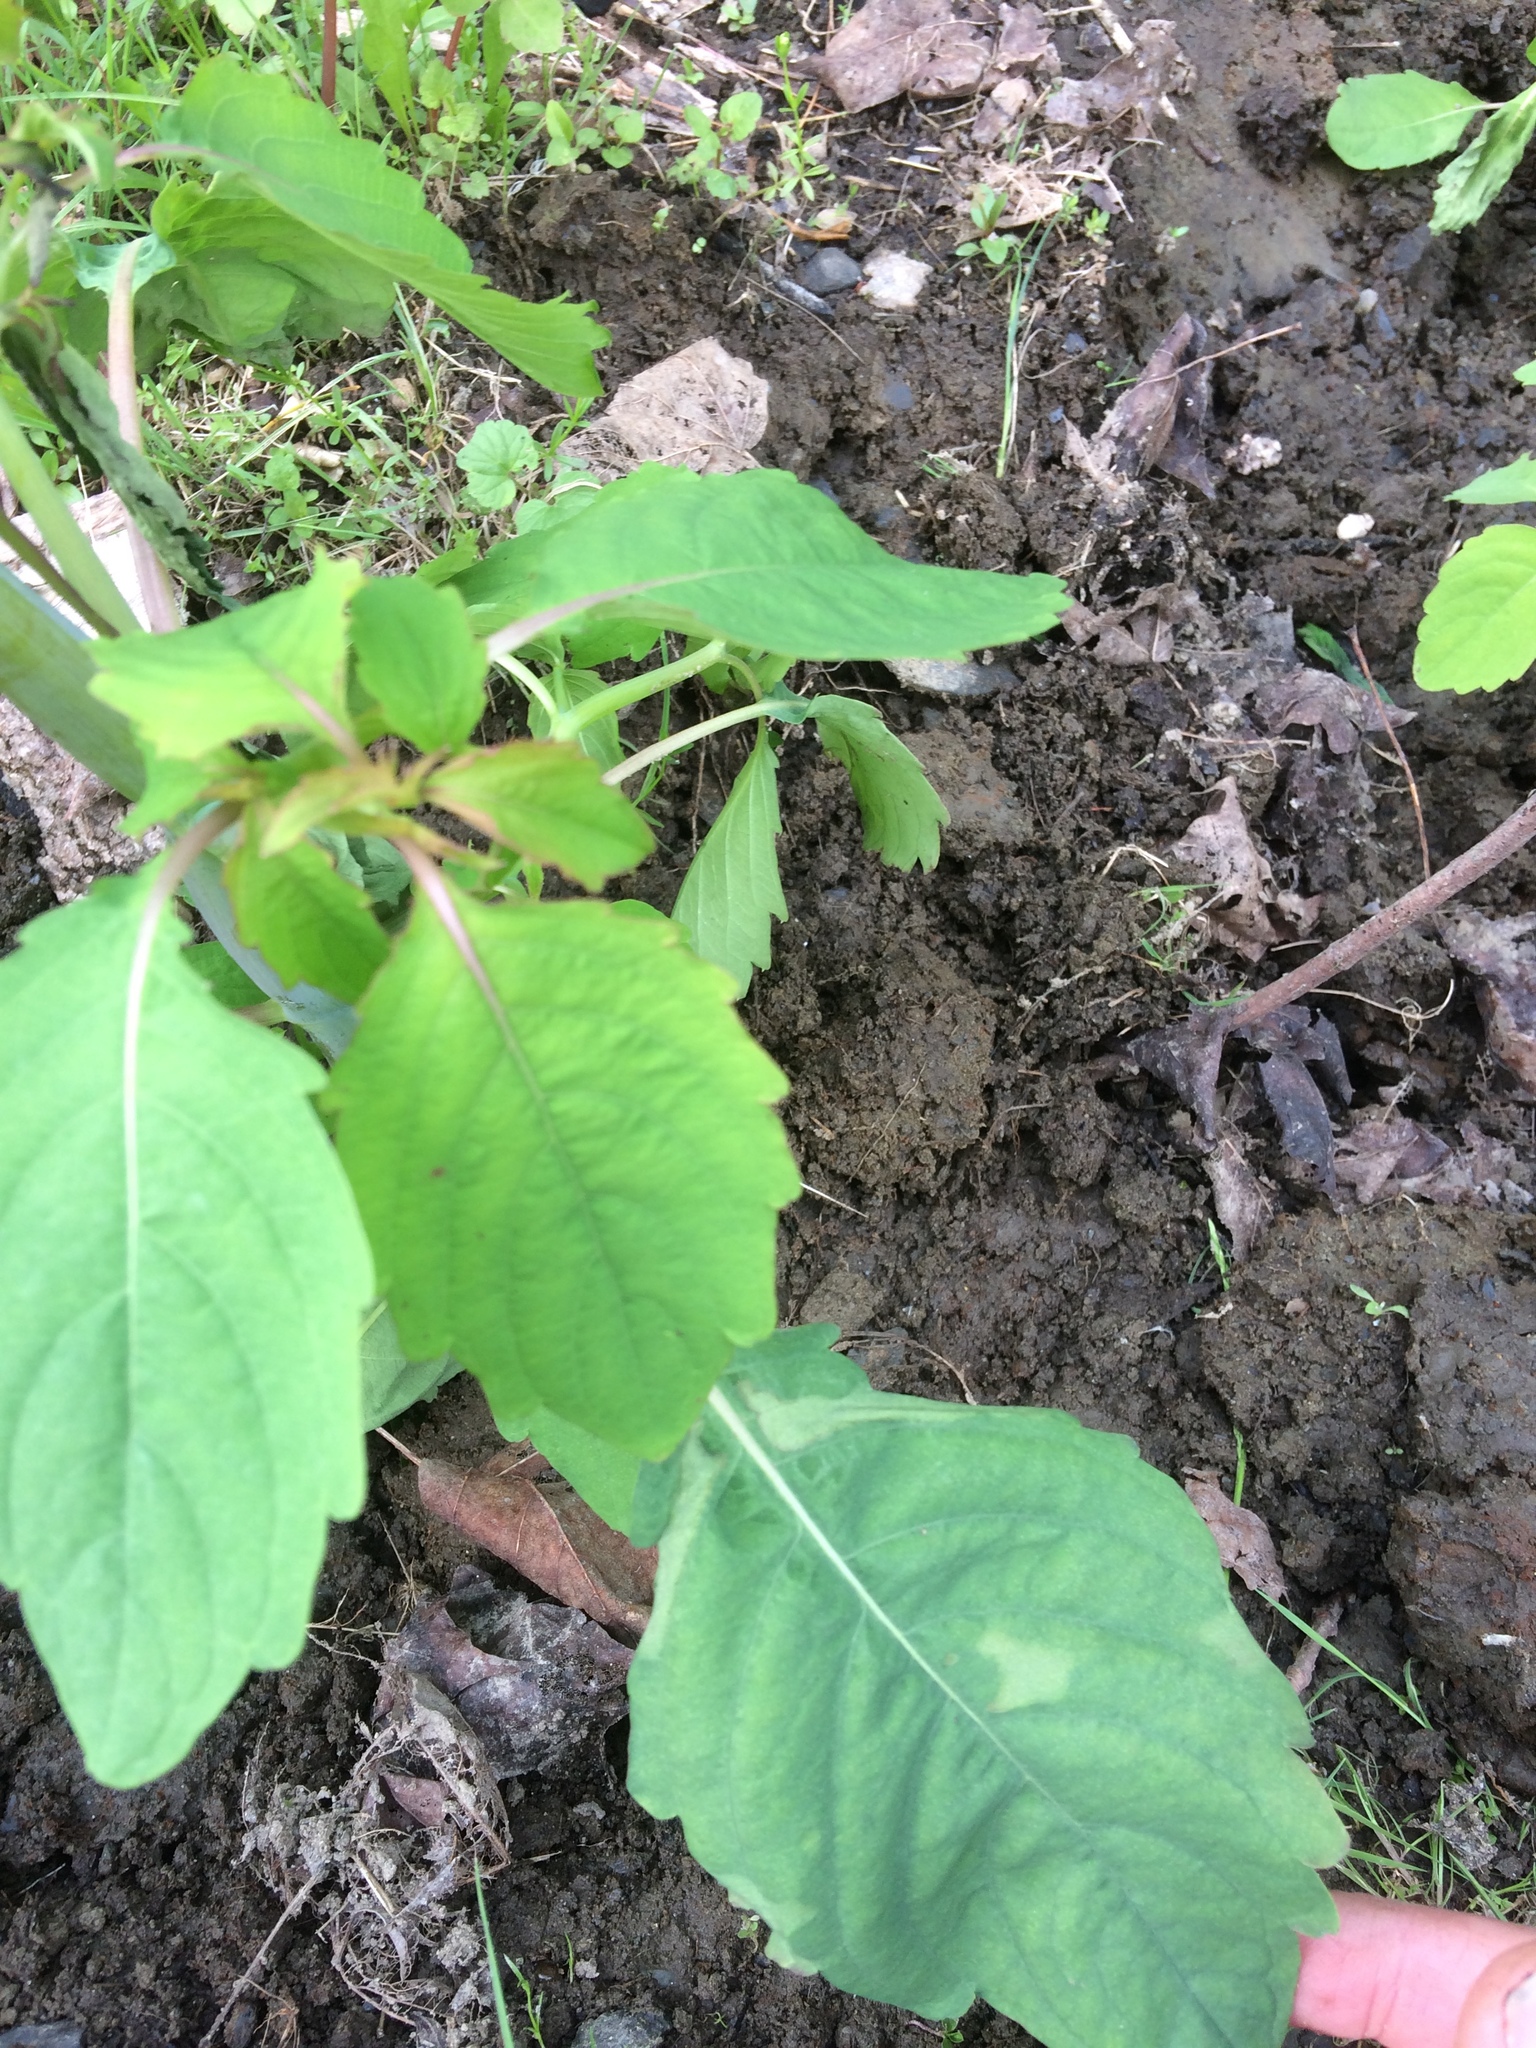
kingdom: Plantae
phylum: Tracheophyta
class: Magnoliopsida
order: Ericales
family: Balsaminaceae
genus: Impatiens
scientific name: Impatiens capensis
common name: Orange balsam
